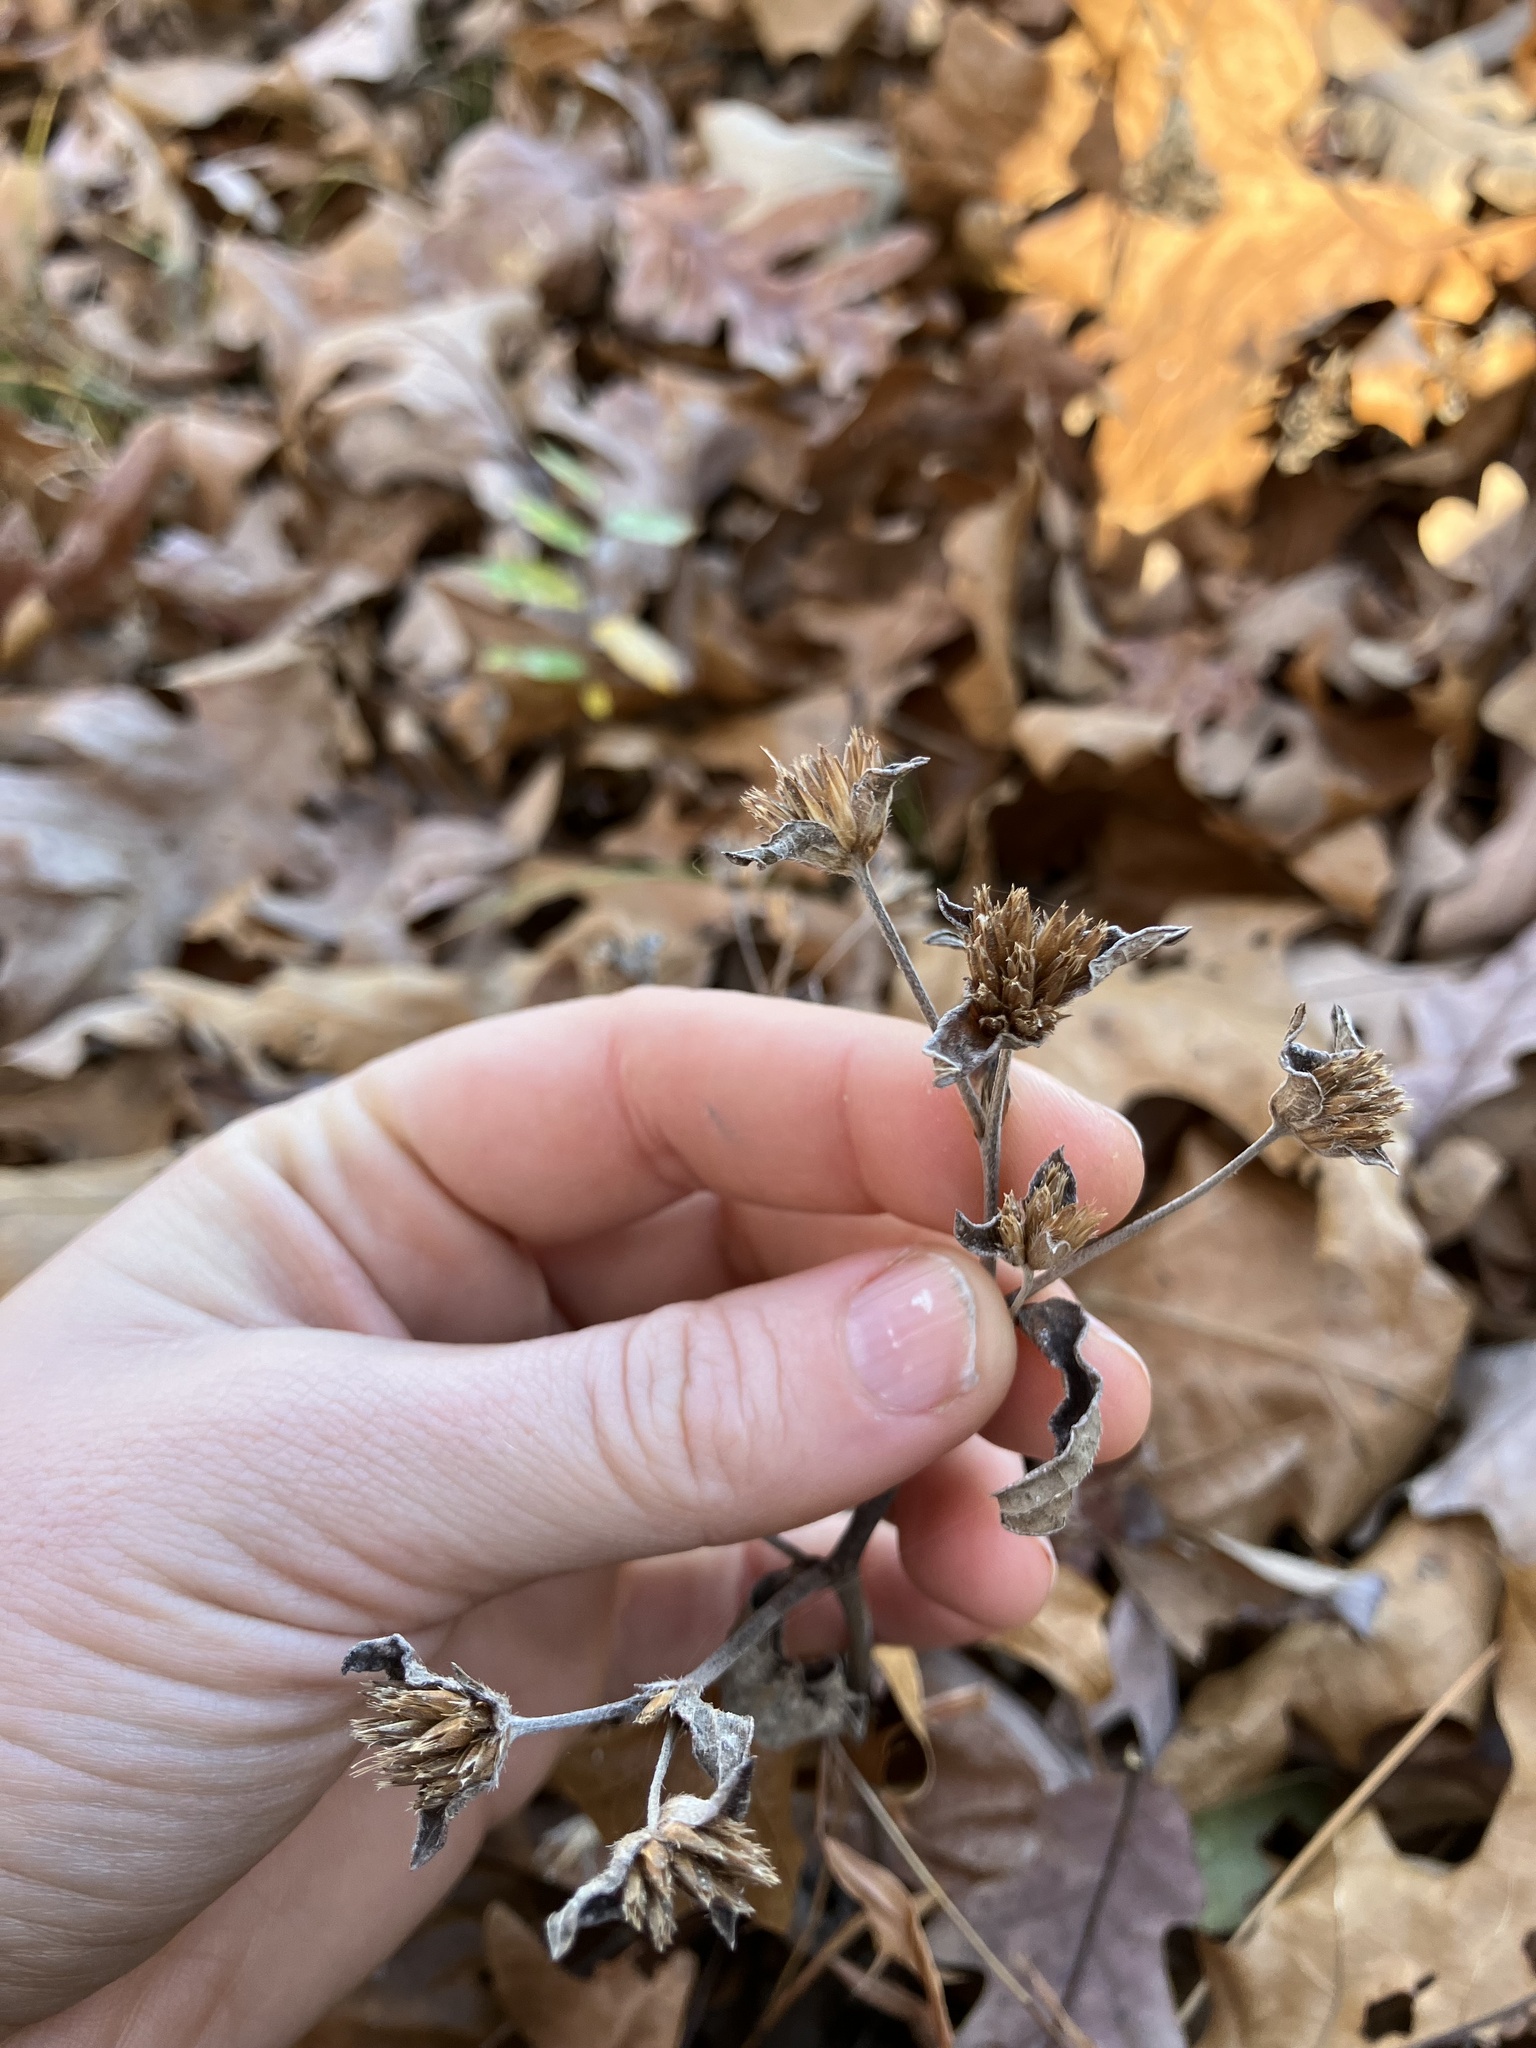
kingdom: Plantae
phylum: Tracheophyta
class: Magnoliopsida
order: Asterales
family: Asteraceae
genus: Elephantopus
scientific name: Elephantopus tomentosus
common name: Tobacco-weed
